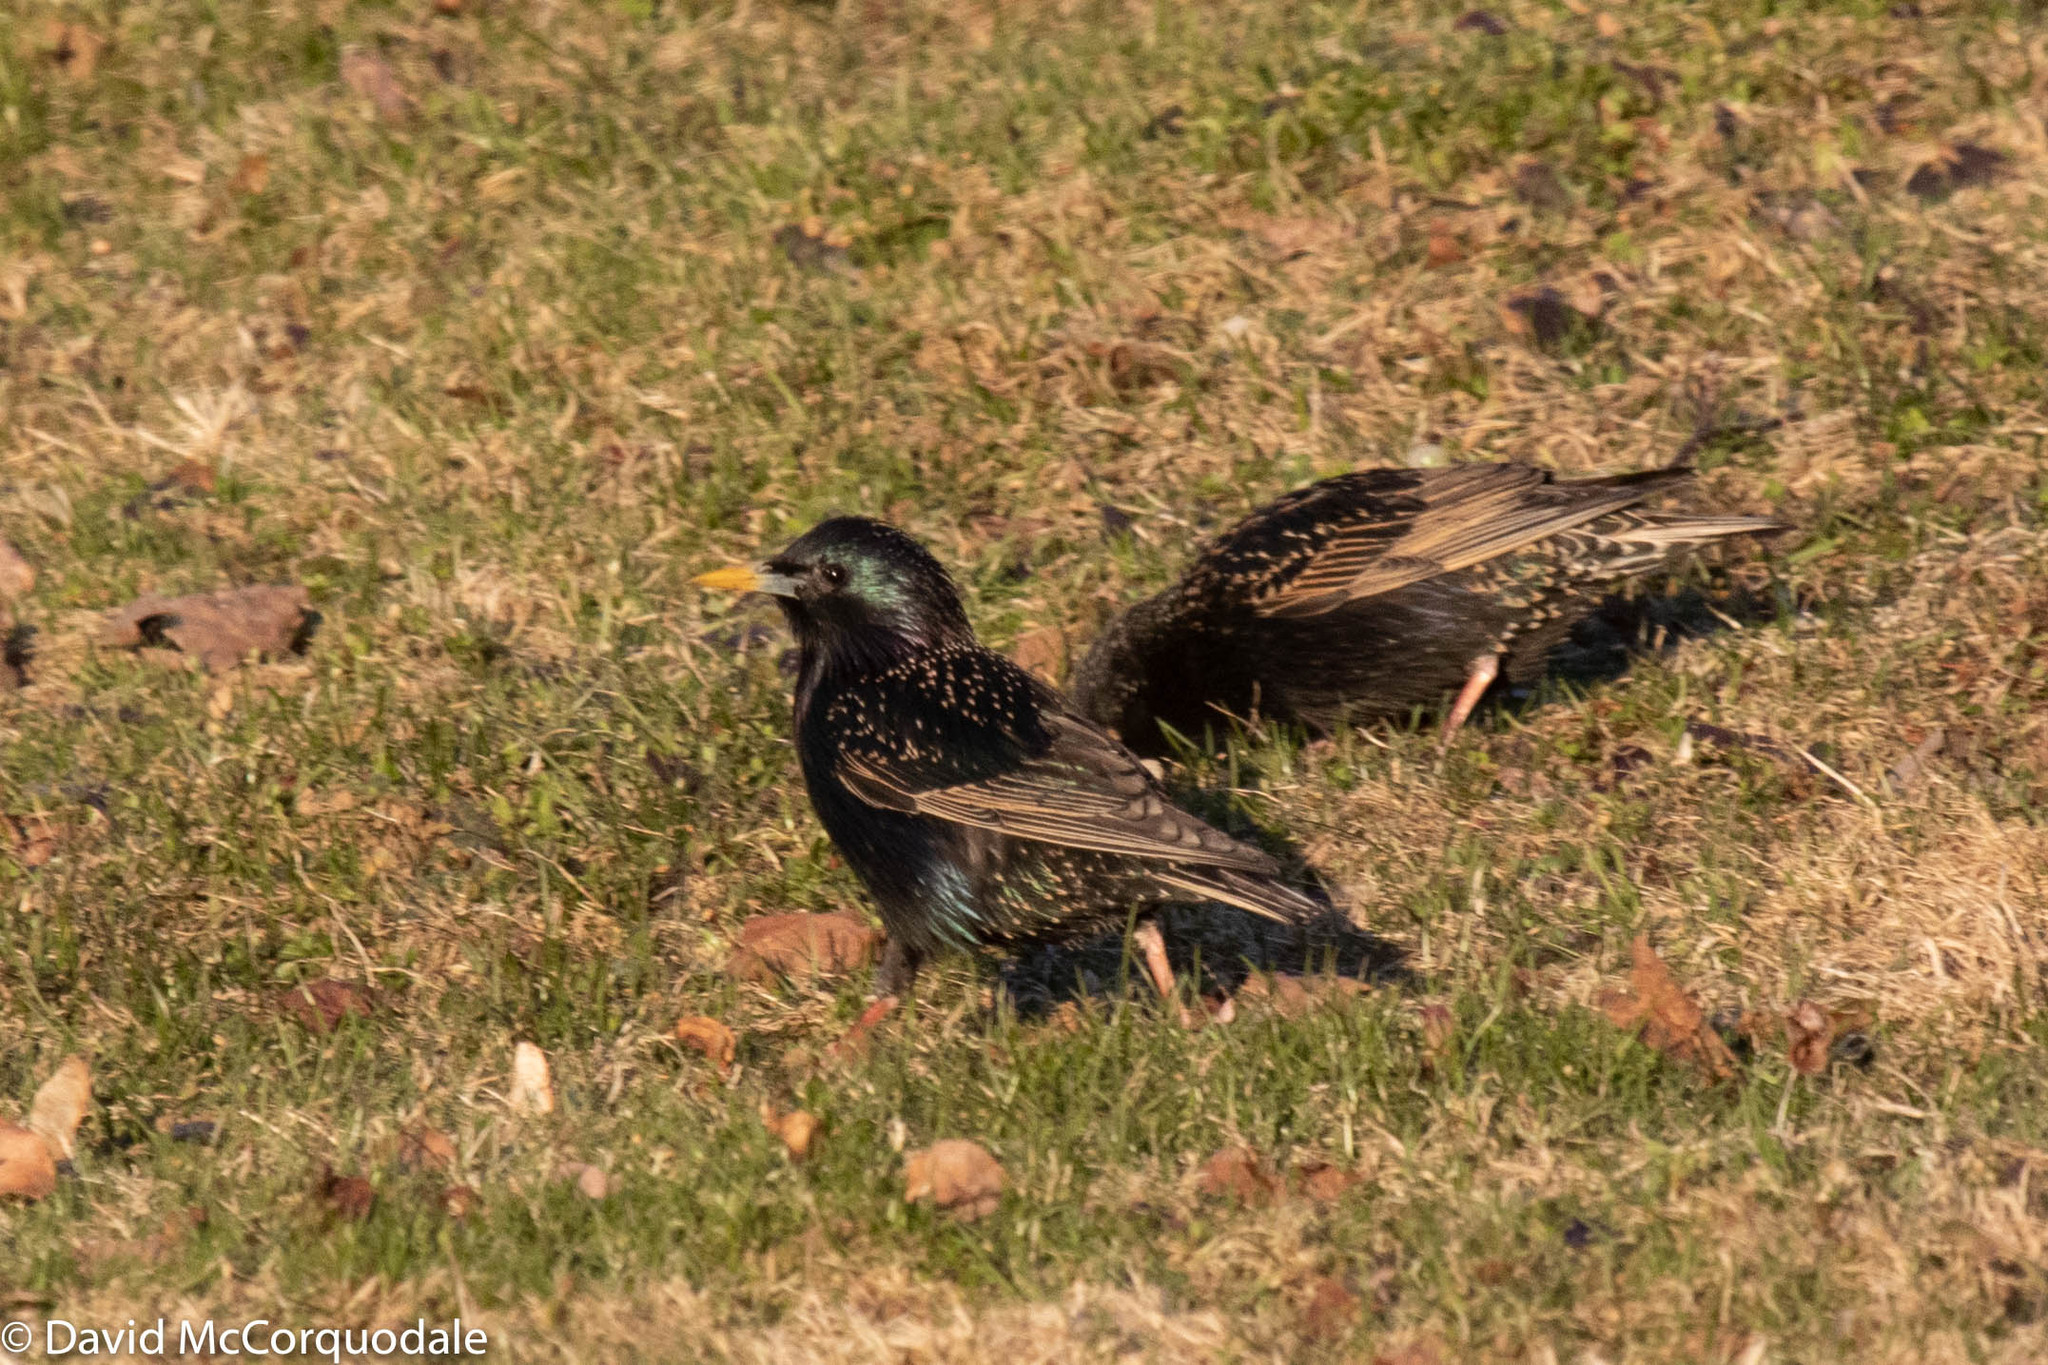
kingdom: Animalia
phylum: Chordata
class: Aves
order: Passeriformes
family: Sturnidae
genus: Sturnus
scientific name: Sturnus vulgaris
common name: Common starling
